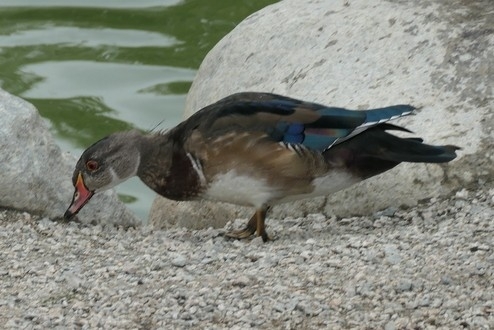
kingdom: Animalia
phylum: Chordata
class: Aves
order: Anseriformes
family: Anatidae
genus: Aix
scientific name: Aix sponsa
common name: Wood duck
